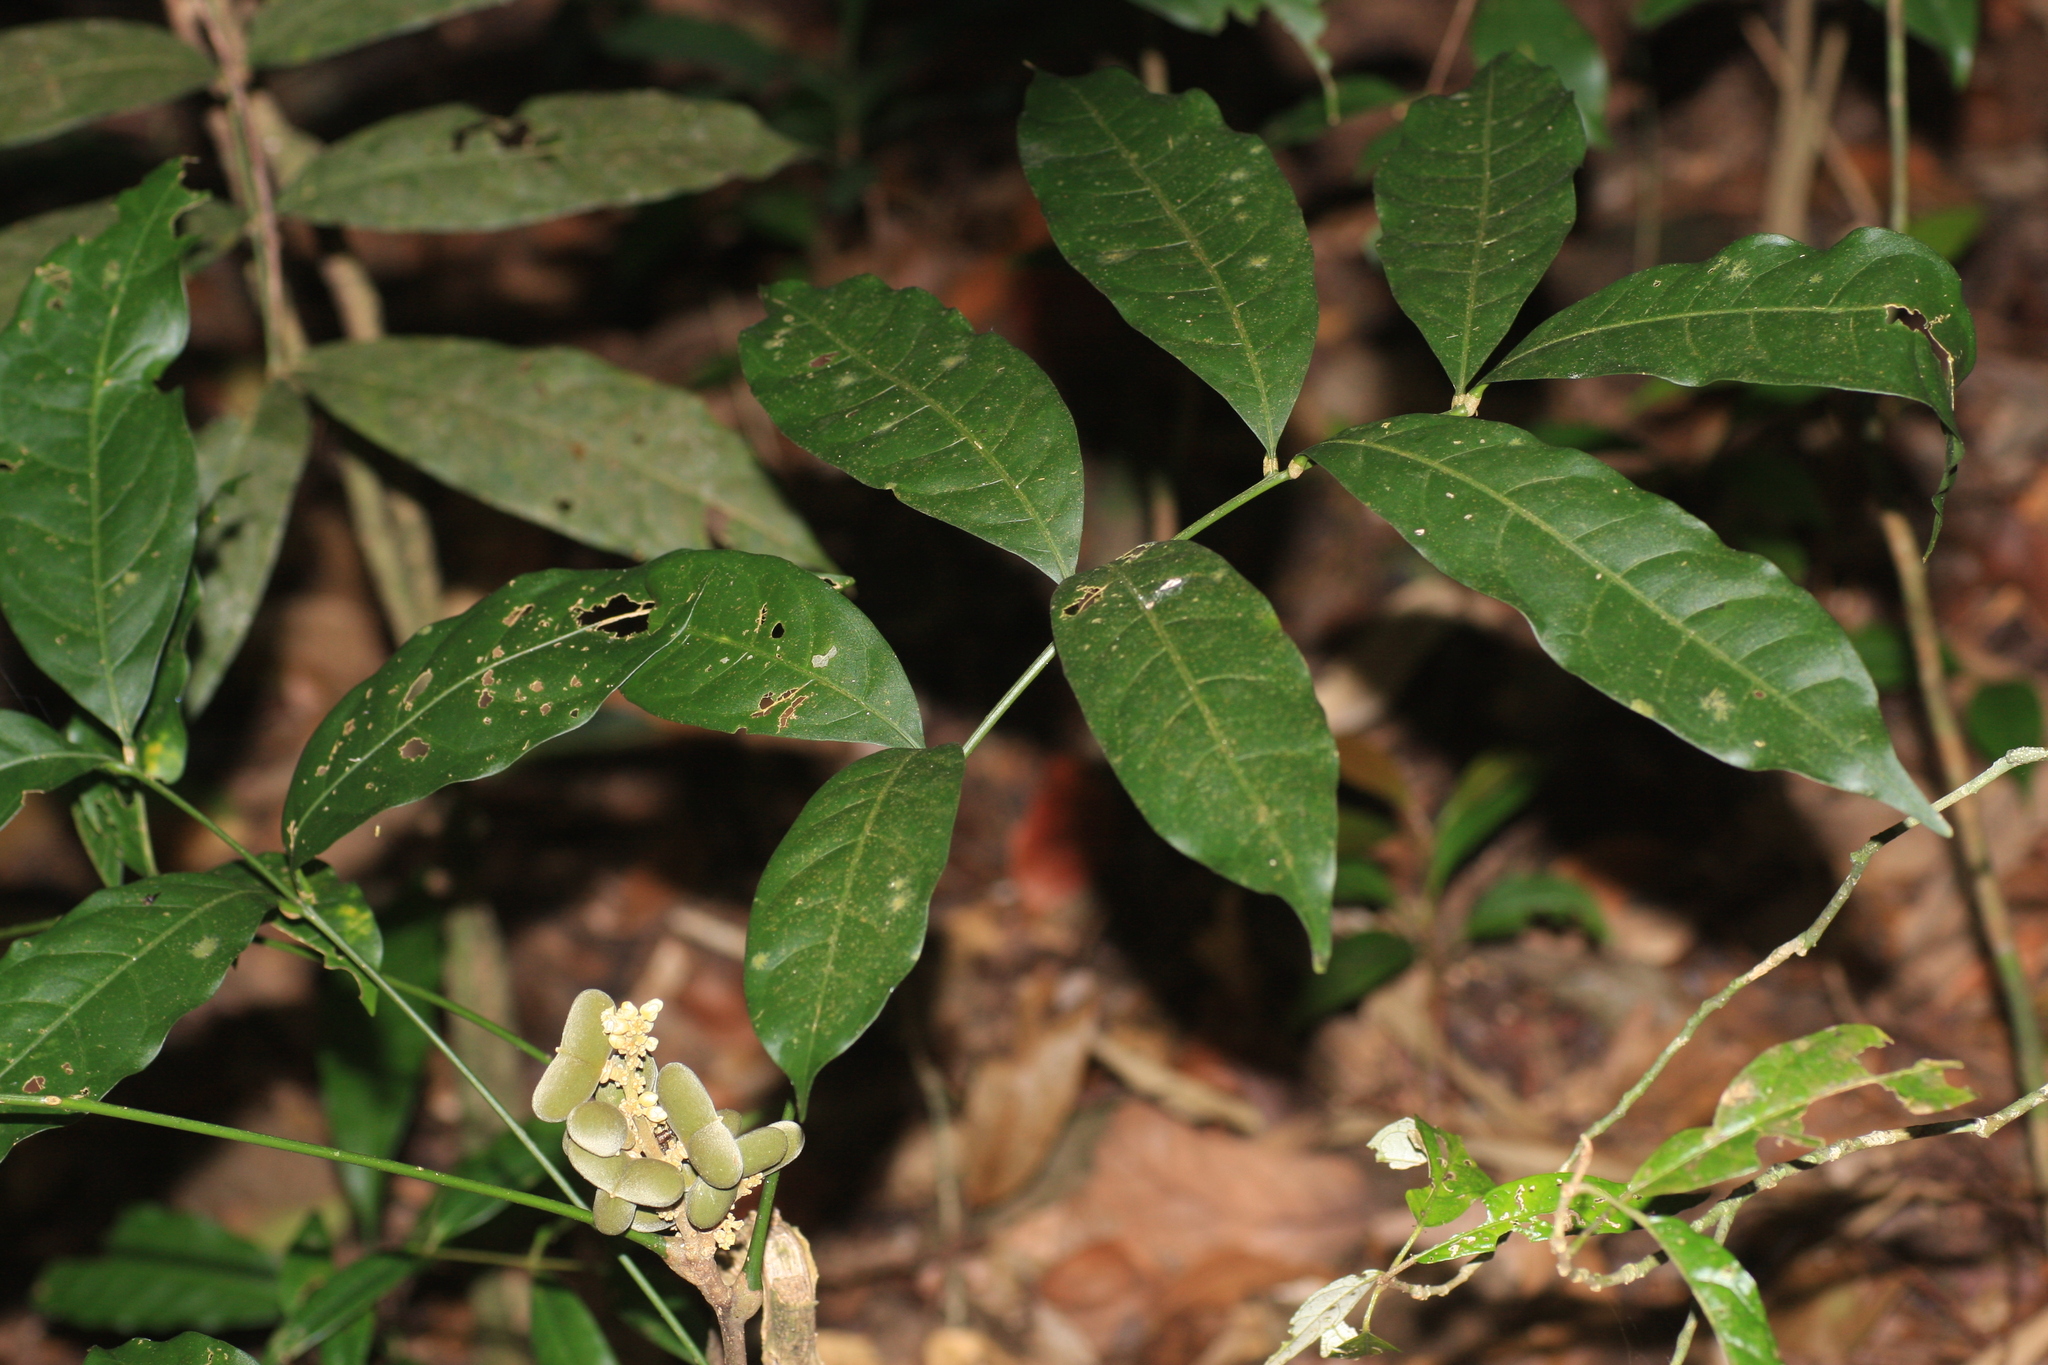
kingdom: Plantae
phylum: Tracheophyta
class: Magnoliopsida
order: Sapindales
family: Sapindaceae
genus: Lepisanthes
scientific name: Lepisanthes erecta
